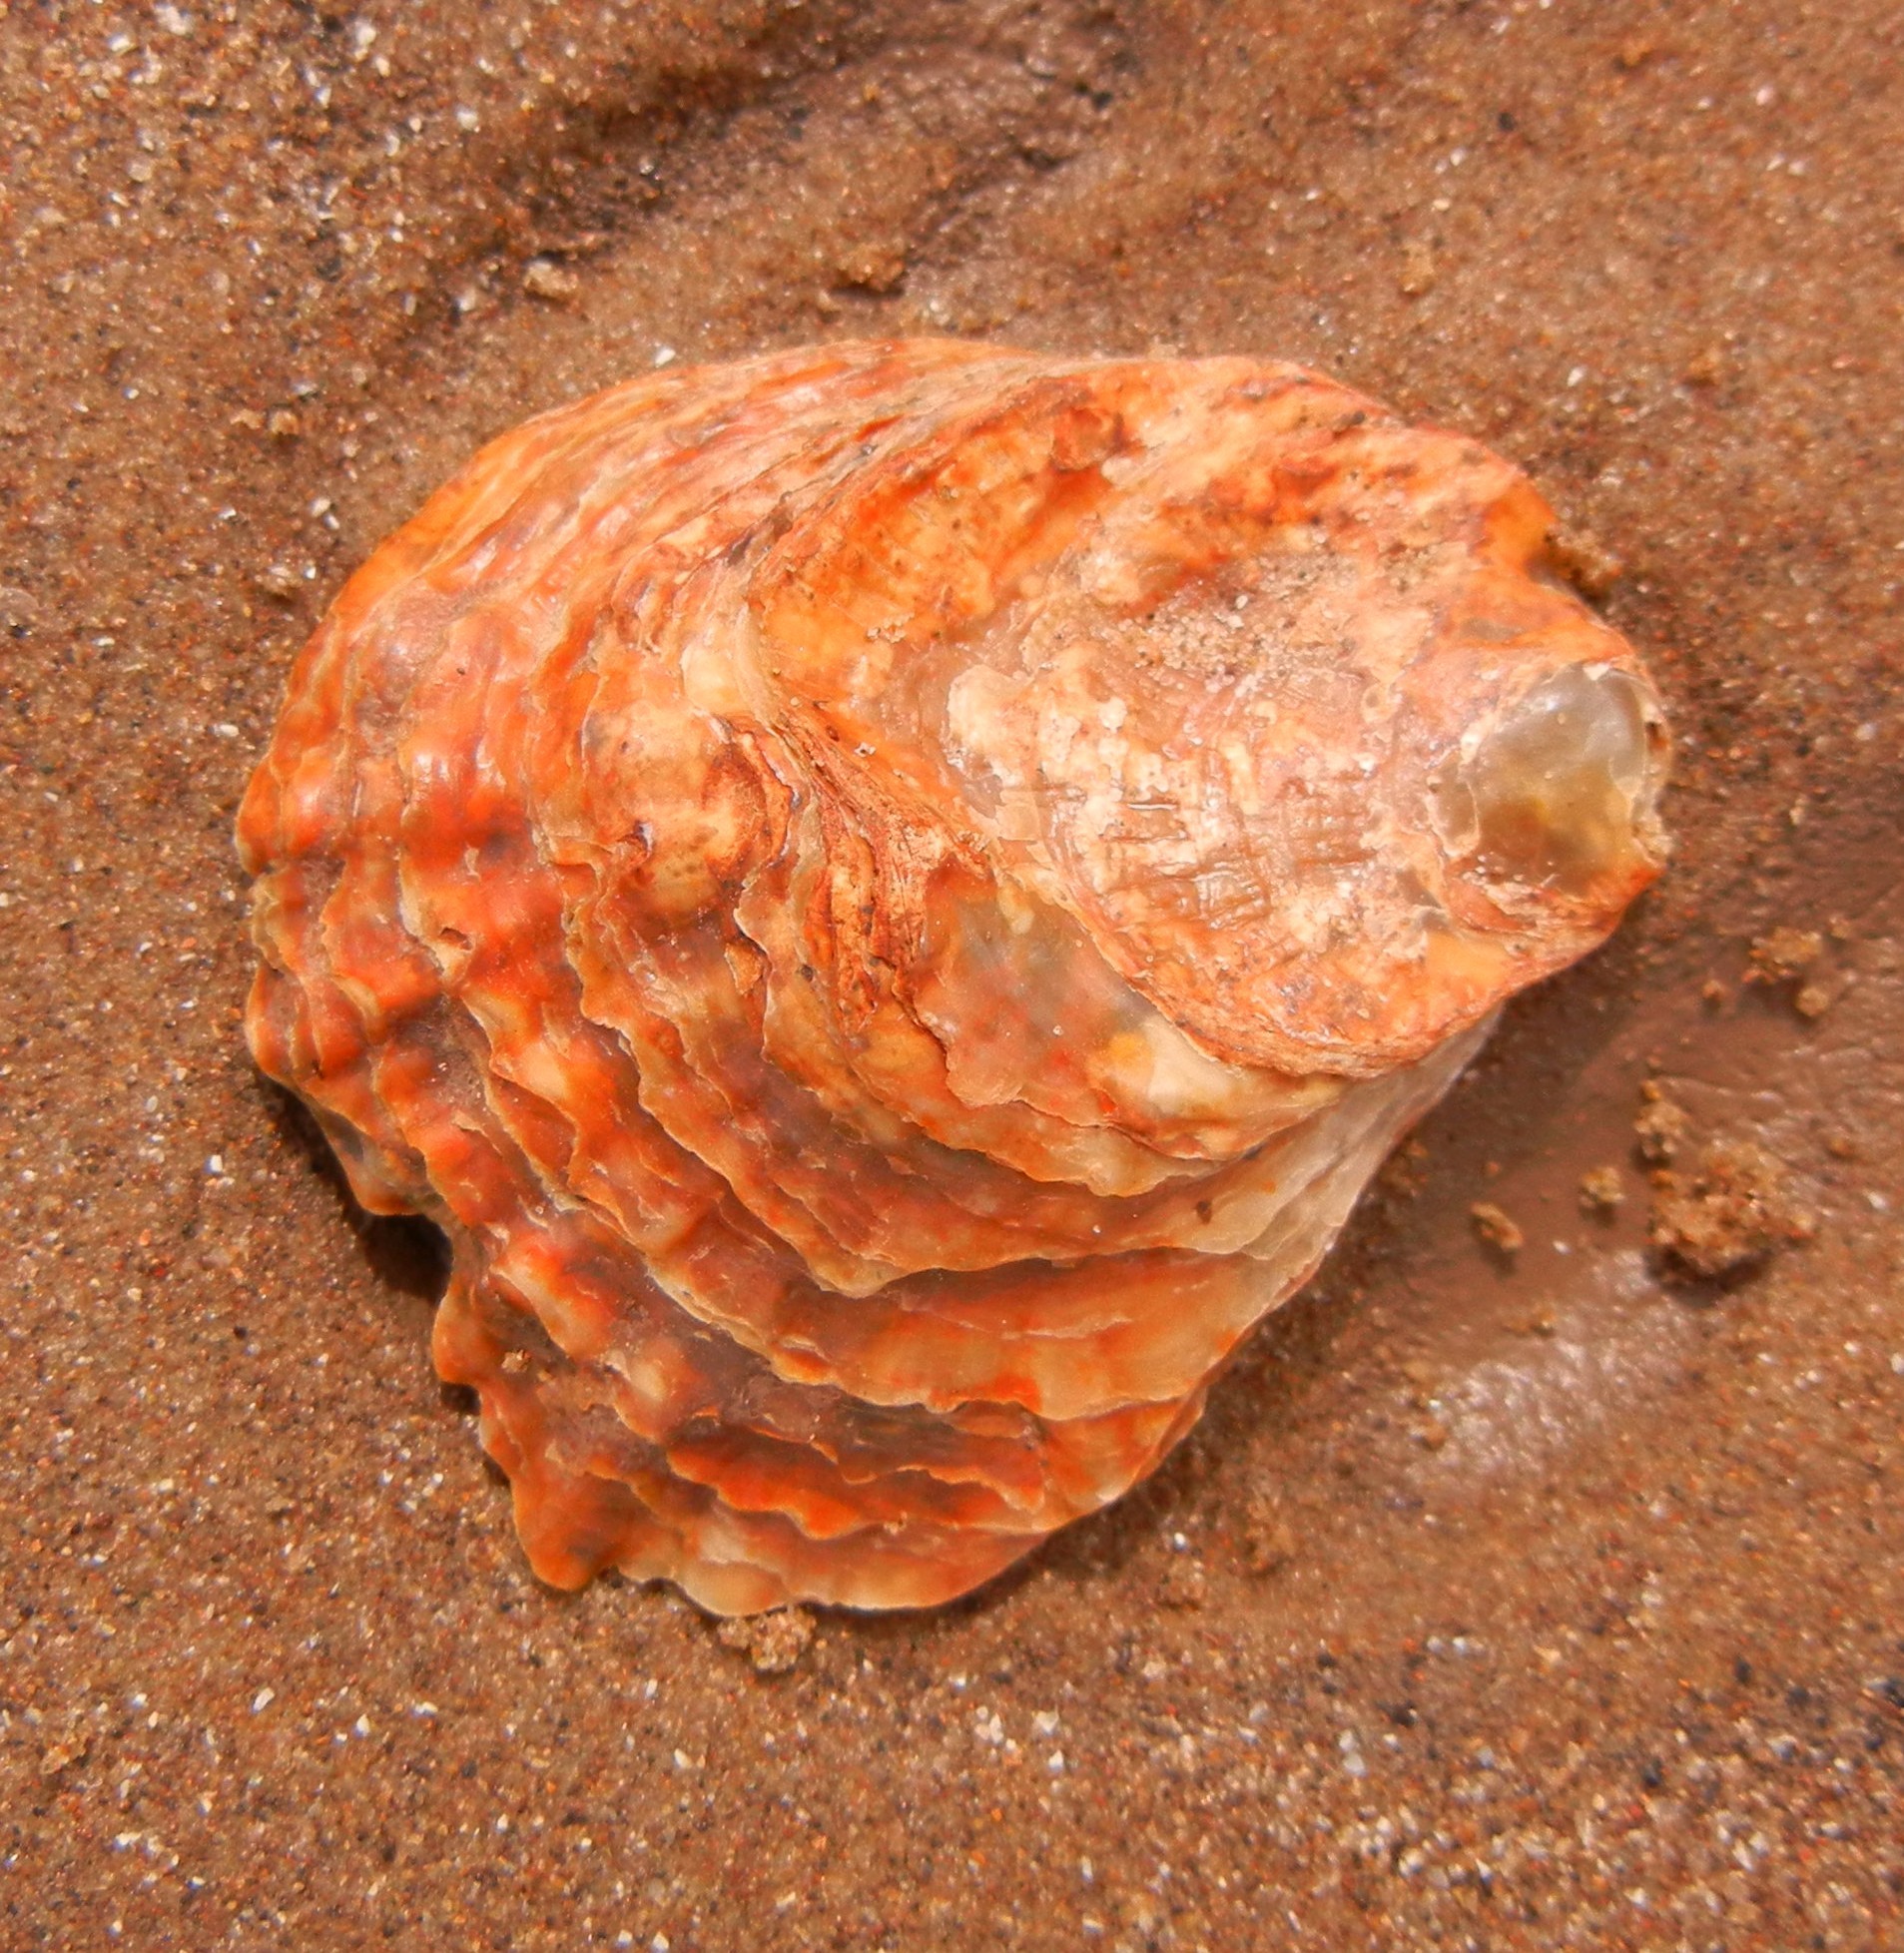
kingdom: Animalia
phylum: Mollusca
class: Bivalvia
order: Ostreida
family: Ostreidae
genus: Ostrea
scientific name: Ostrea edulis
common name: Flat oyster
